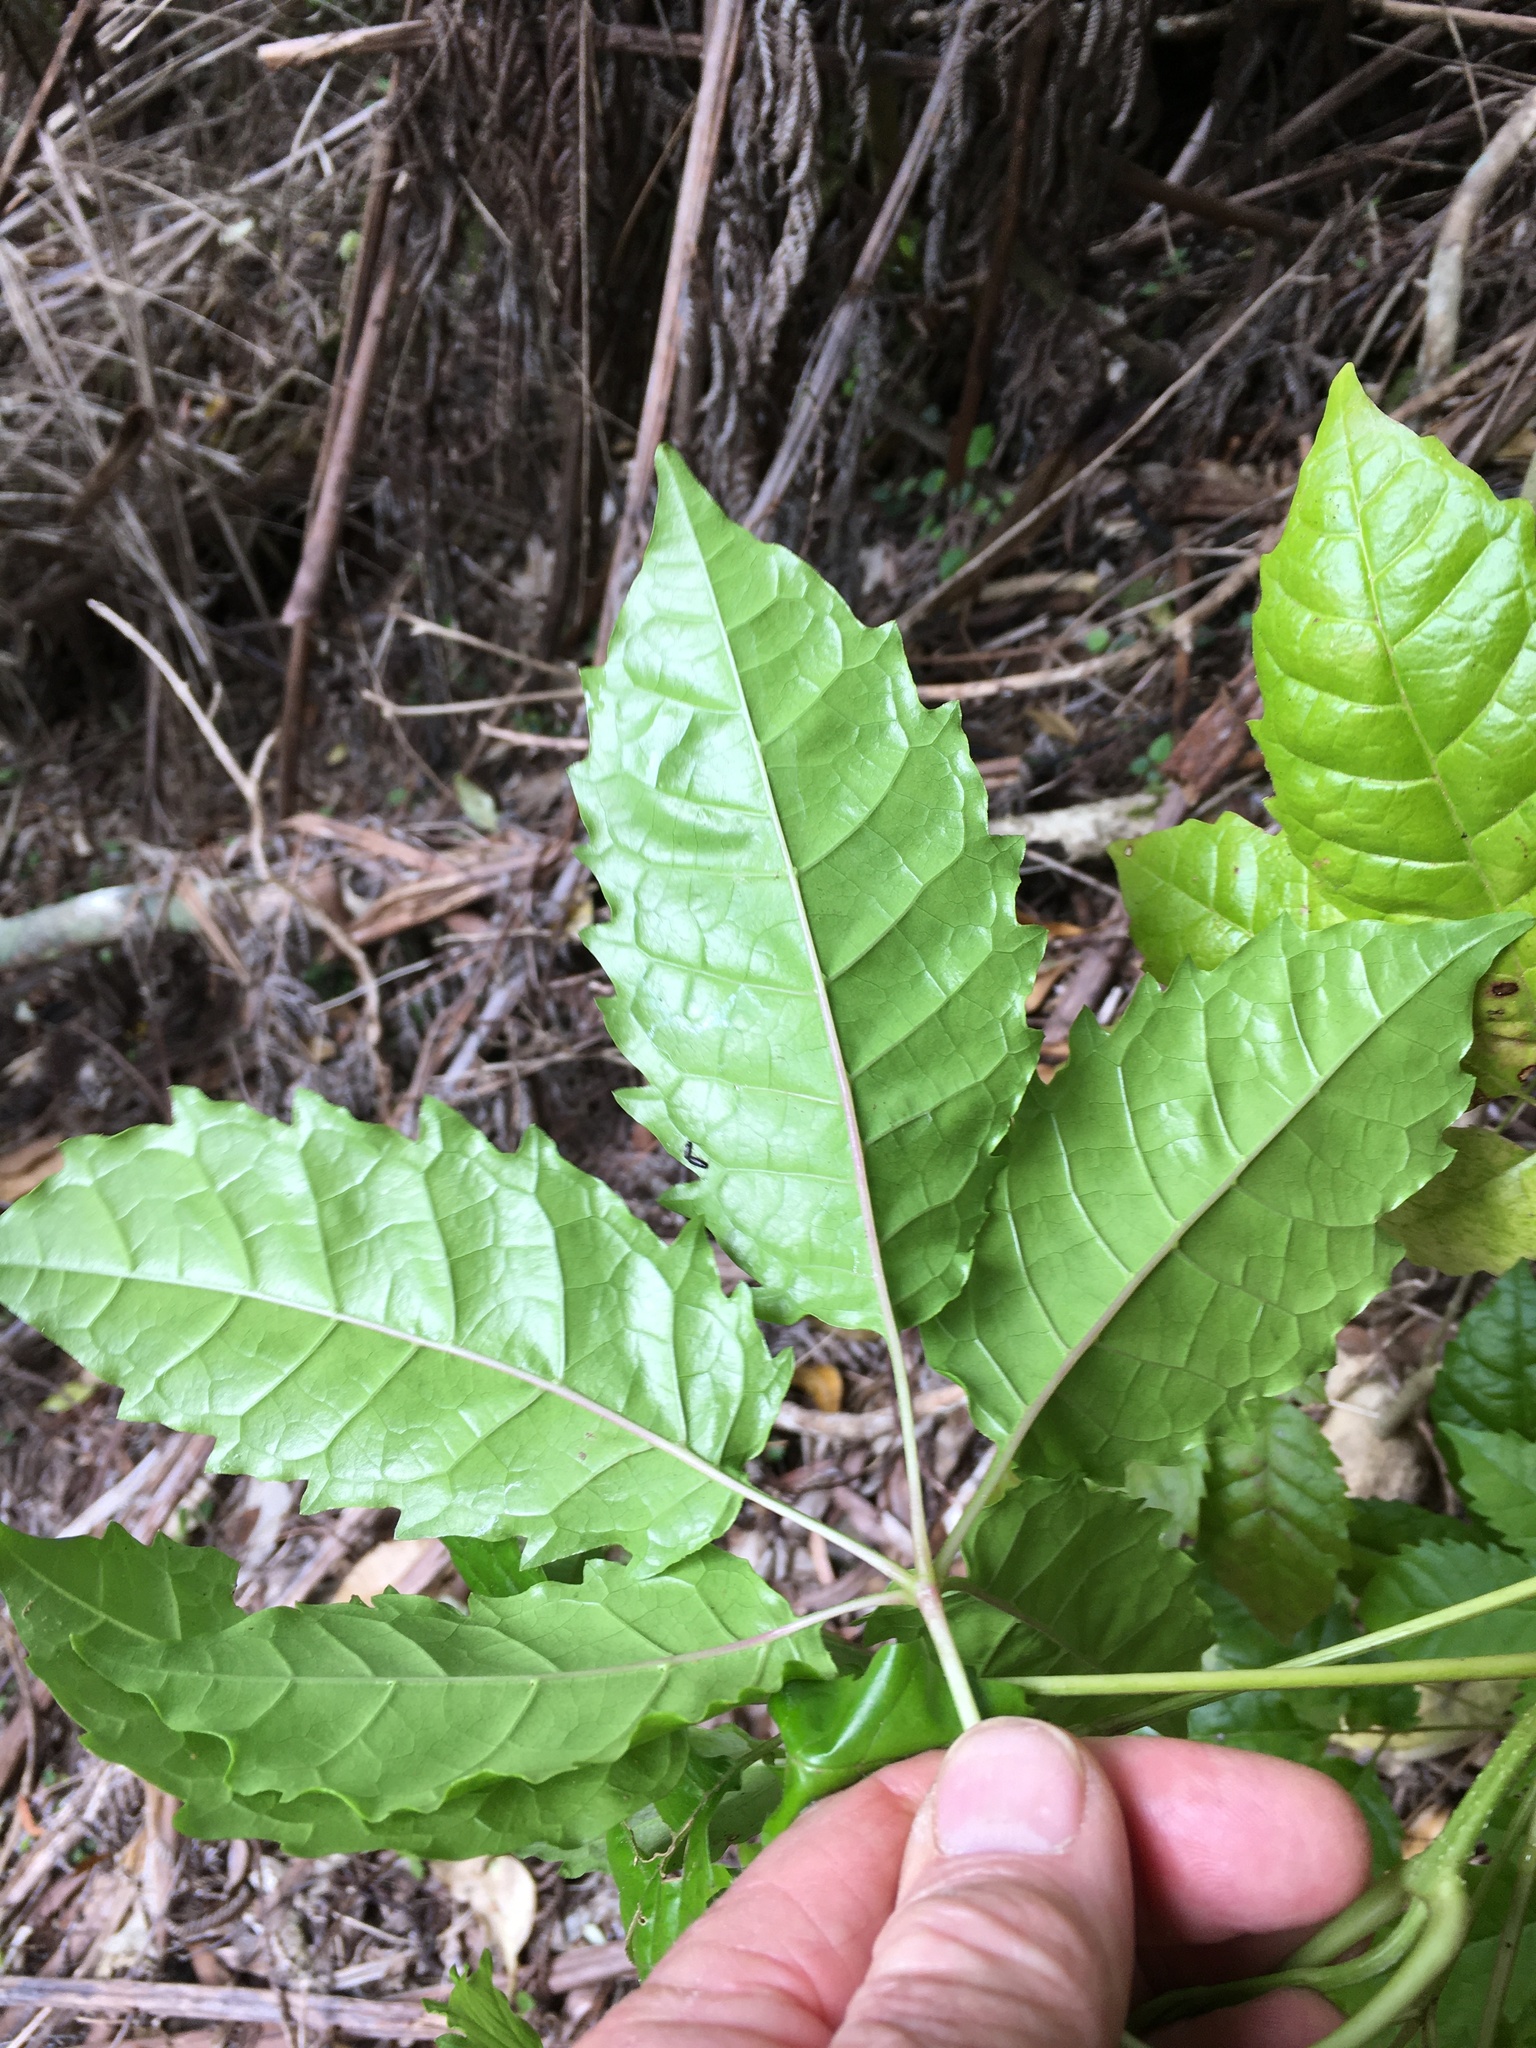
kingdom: Plantae
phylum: Tracheophyta
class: Magnoliopsida
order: Lamiales
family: Lamiaceae
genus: Vitex
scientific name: Vitex lucens
